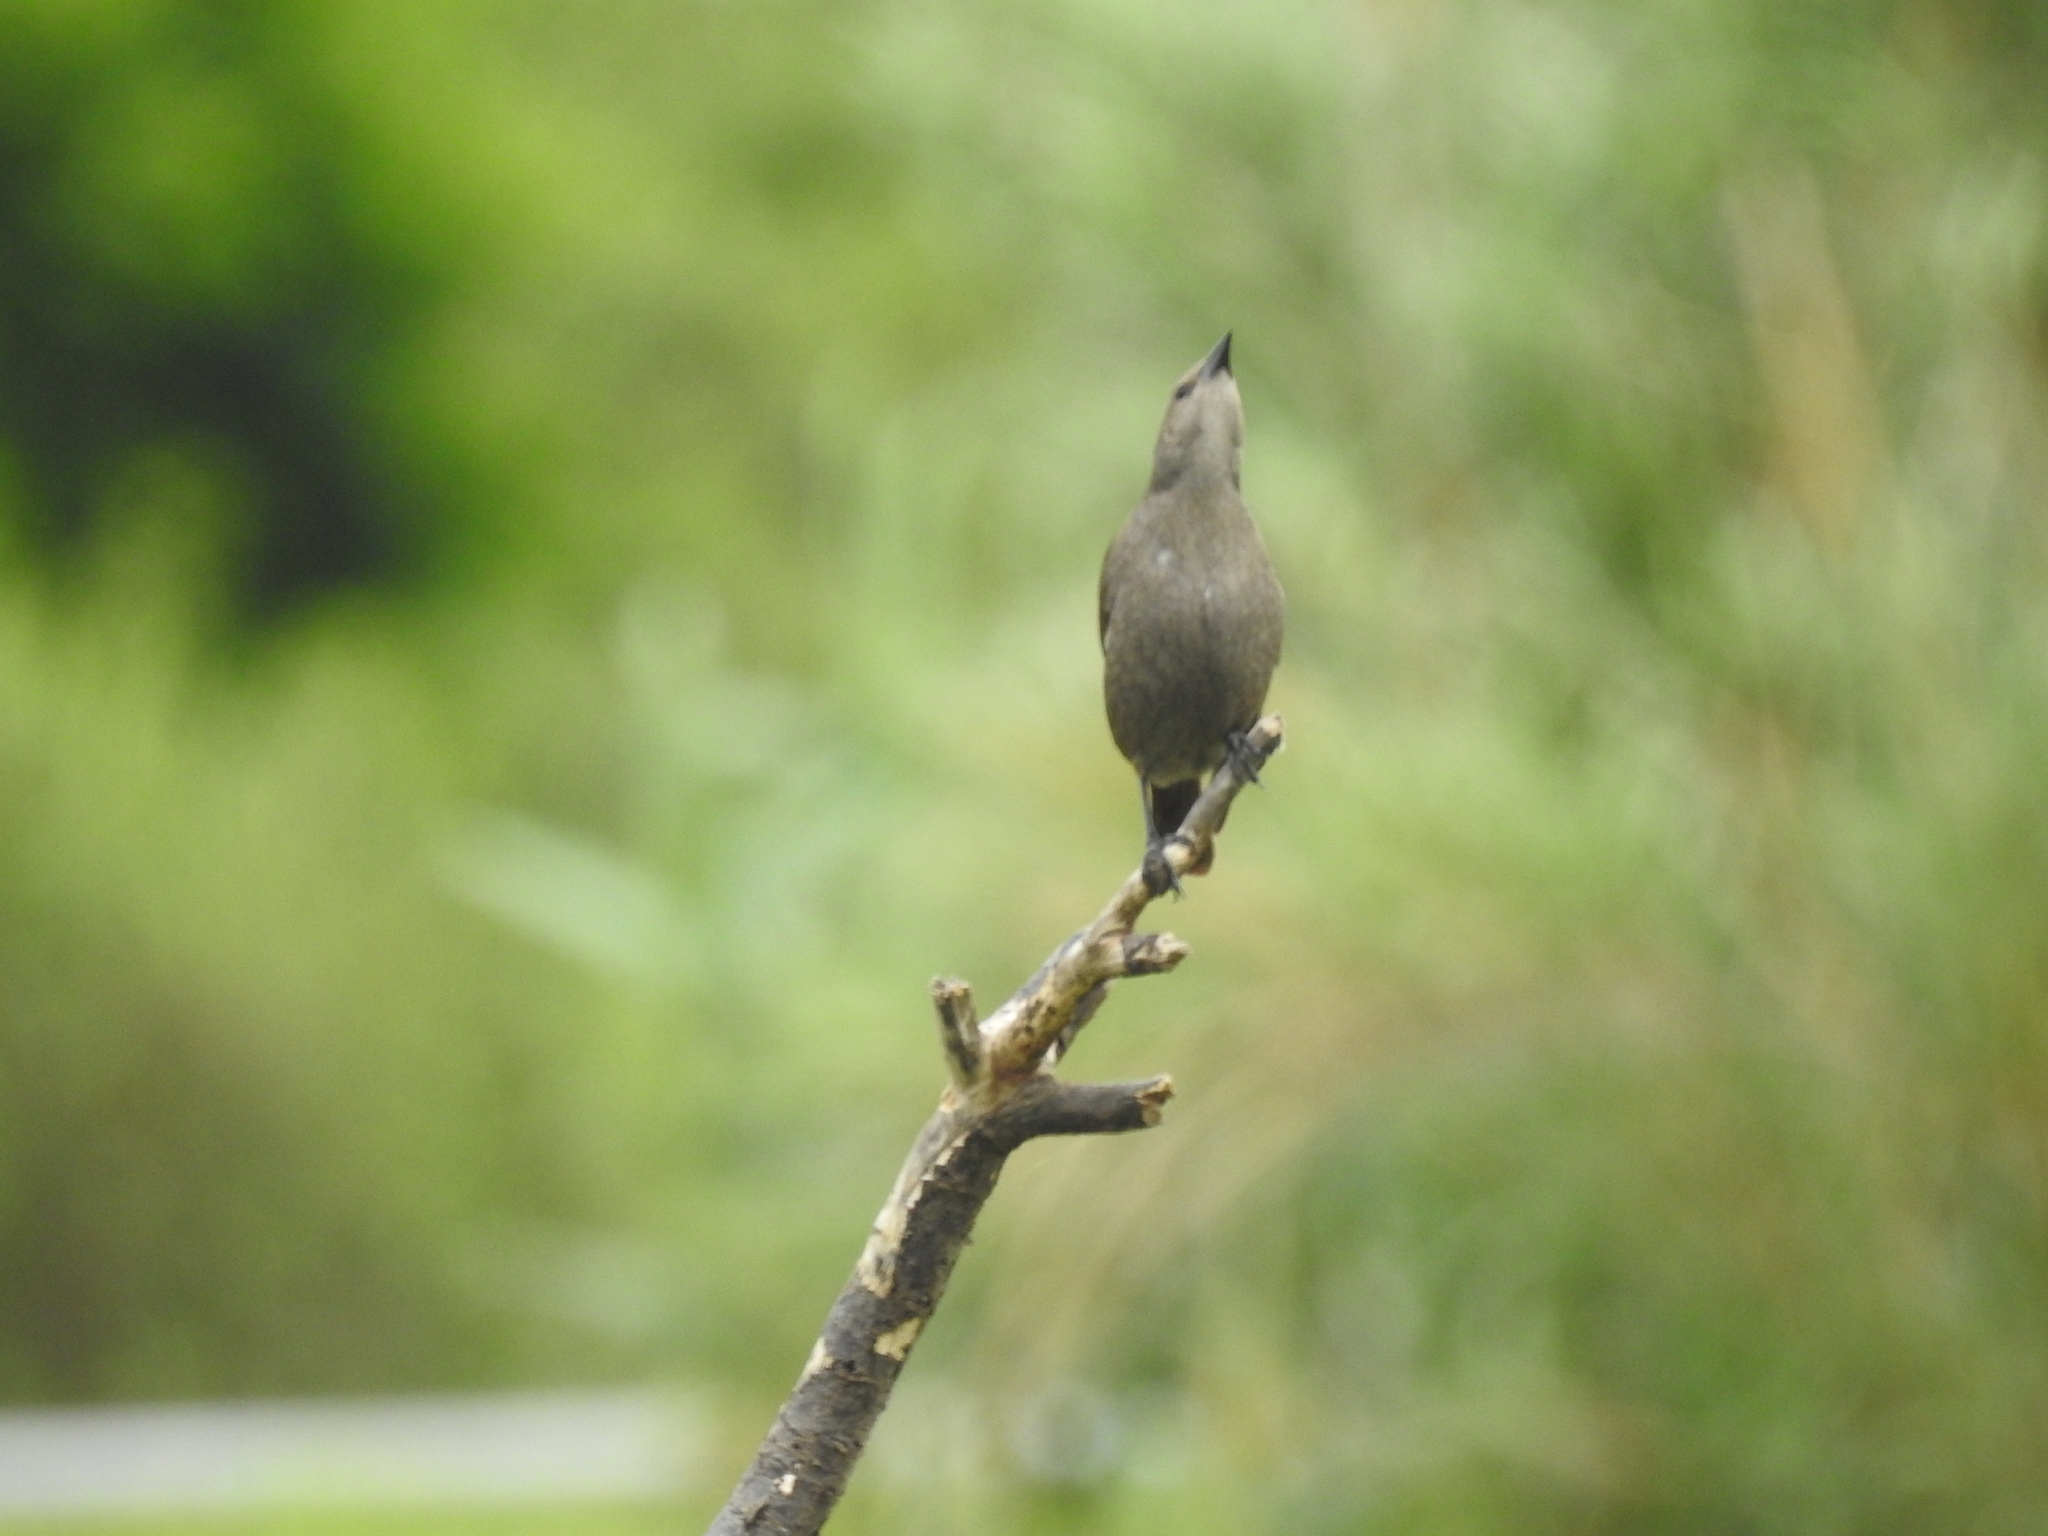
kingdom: Animalia
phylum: Chordata
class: Aves
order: Passeriformes
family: Icteridae
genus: Molothrus
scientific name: Molothrus bonariensis
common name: Shiny cowbird
